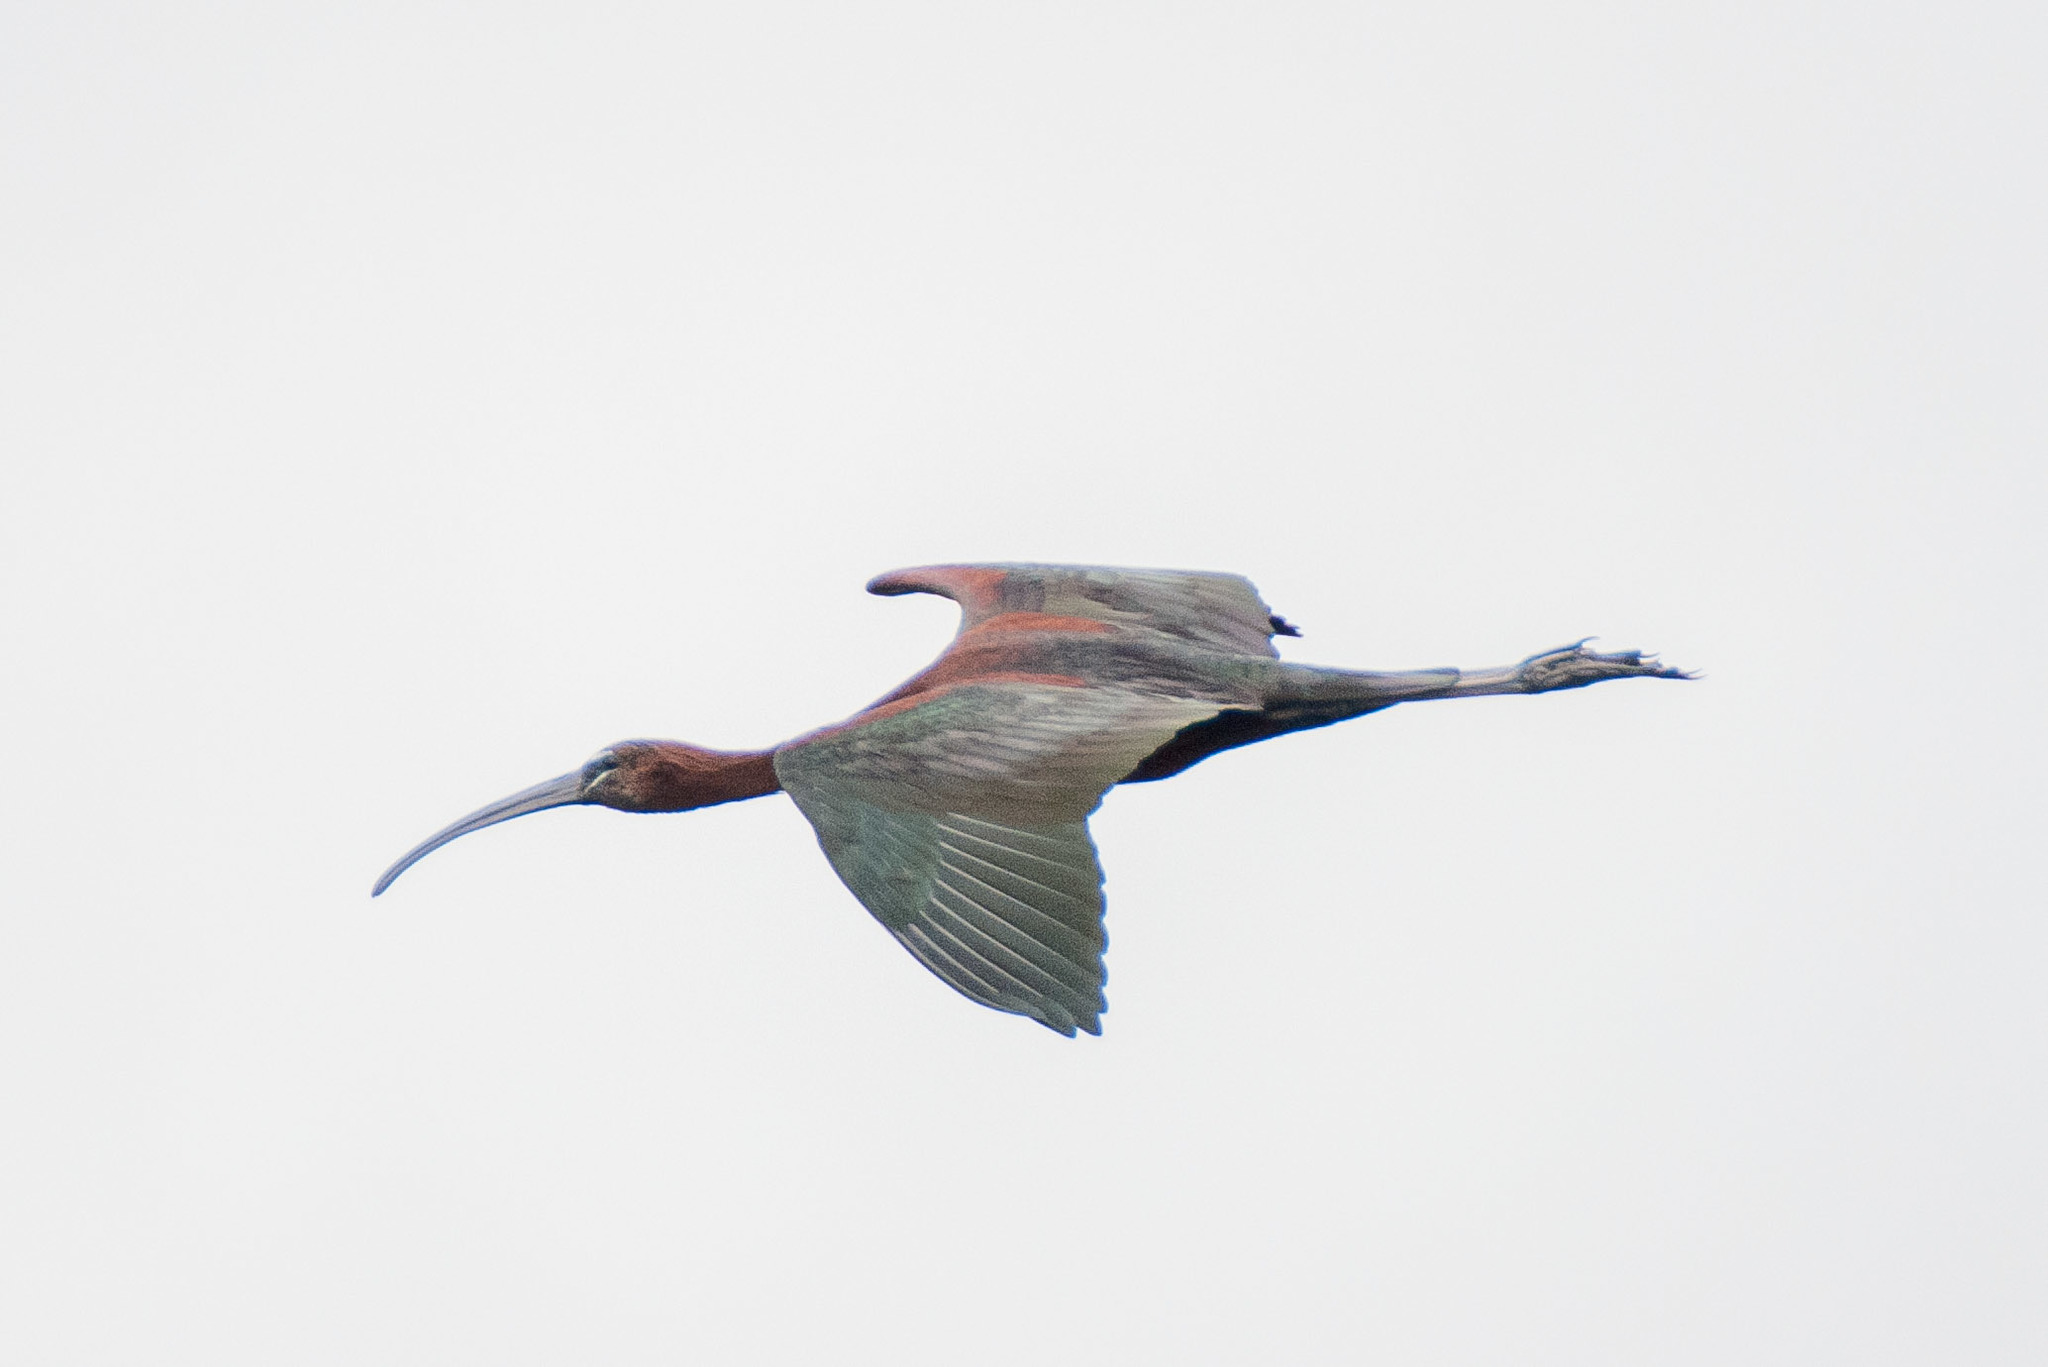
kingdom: Animalia
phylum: Chordata
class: Aves
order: Pelecaniformes
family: Threskiornithidae
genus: Plegadis
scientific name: Plegadis falcinellus
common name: Glossy ibis
